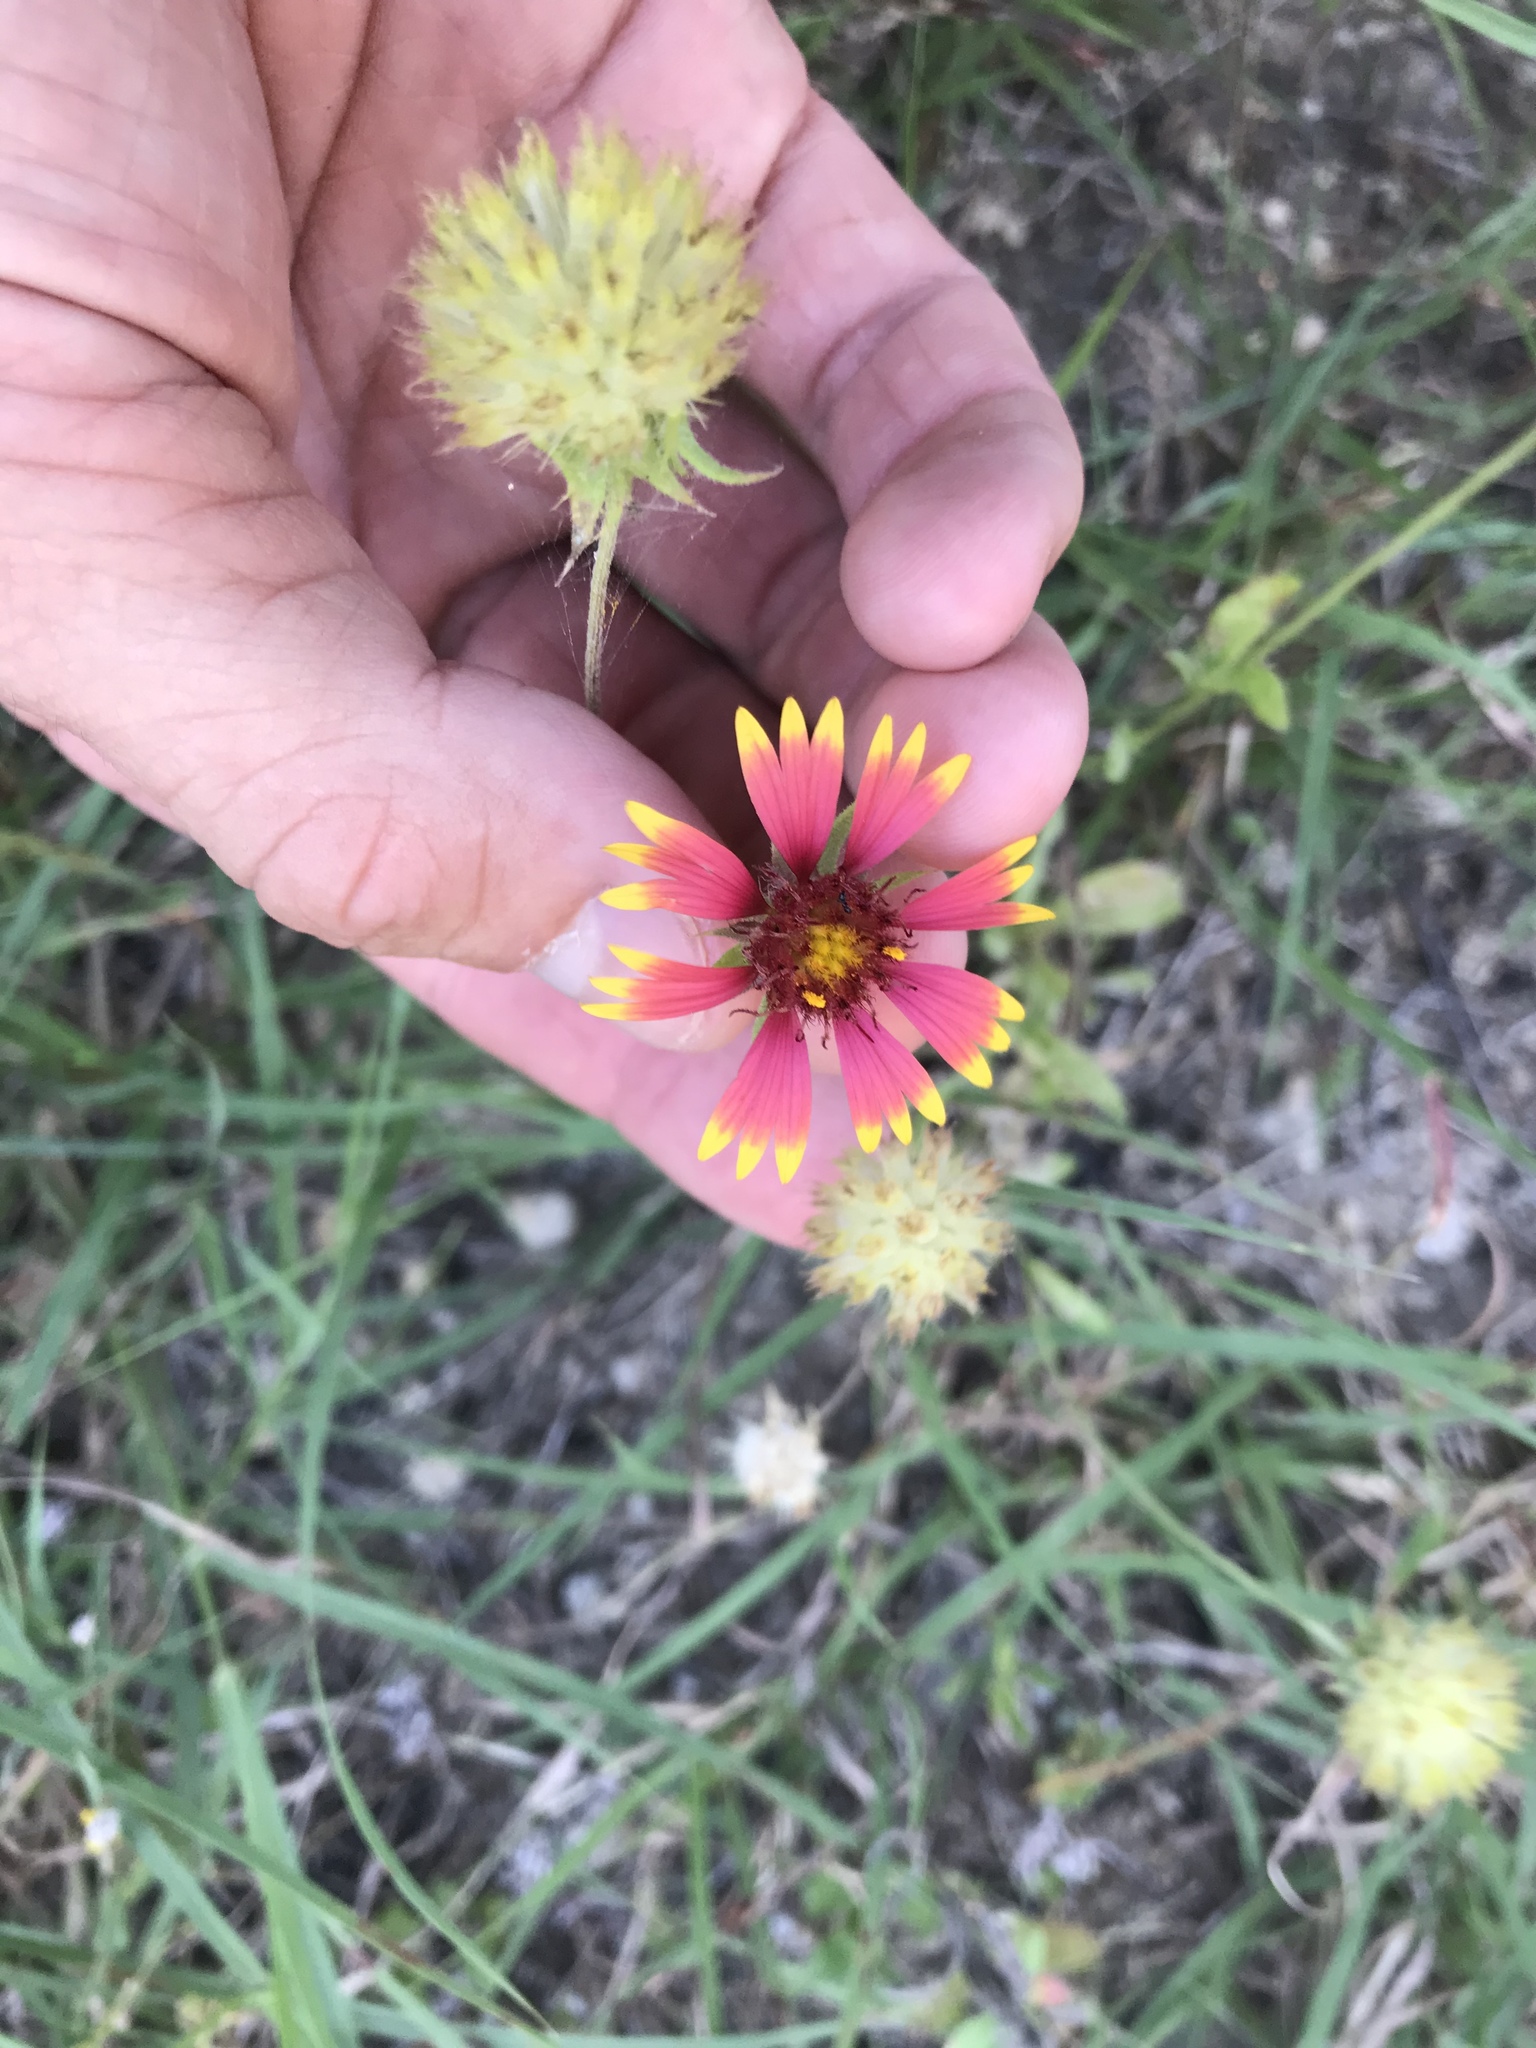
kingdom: Plantae
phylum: Tracheophyta
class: Magnoliopsida
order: Asterales
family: Asteraceae
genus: Gaillardia
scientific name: Gaillardia pulchella
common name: Firewheel
